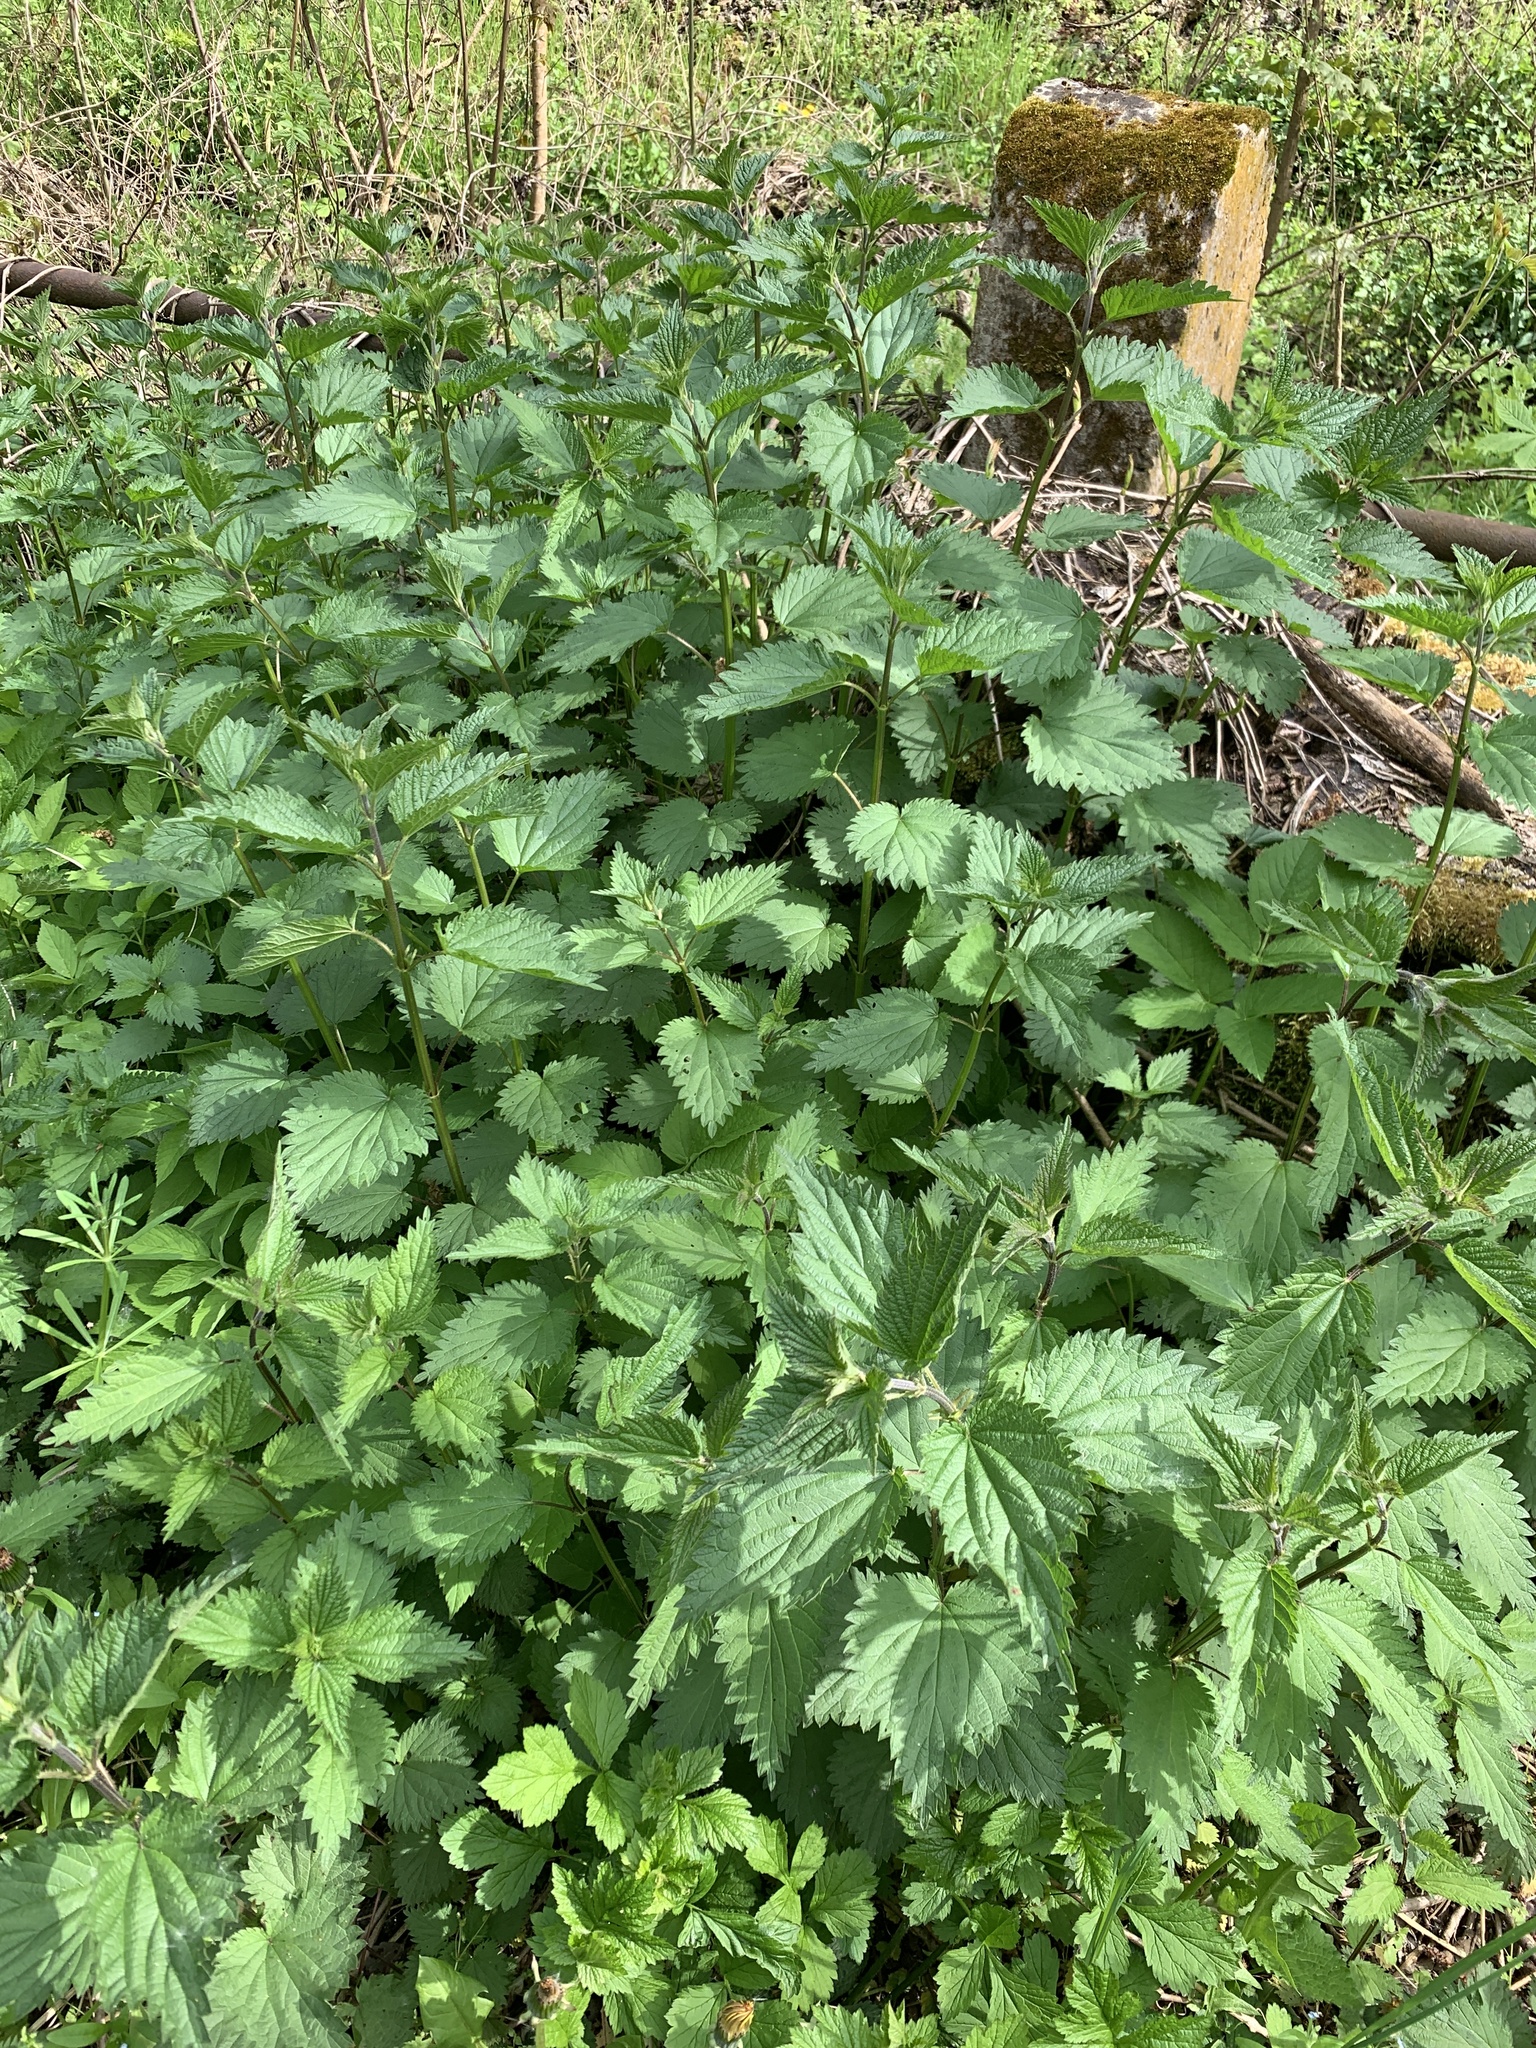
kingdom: Plantae
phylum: Tracheophyta
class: Magnoliopsida
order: Rosales
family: Urticaceae
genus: Urtica
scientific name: Urtica dioica
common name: Common nettle
